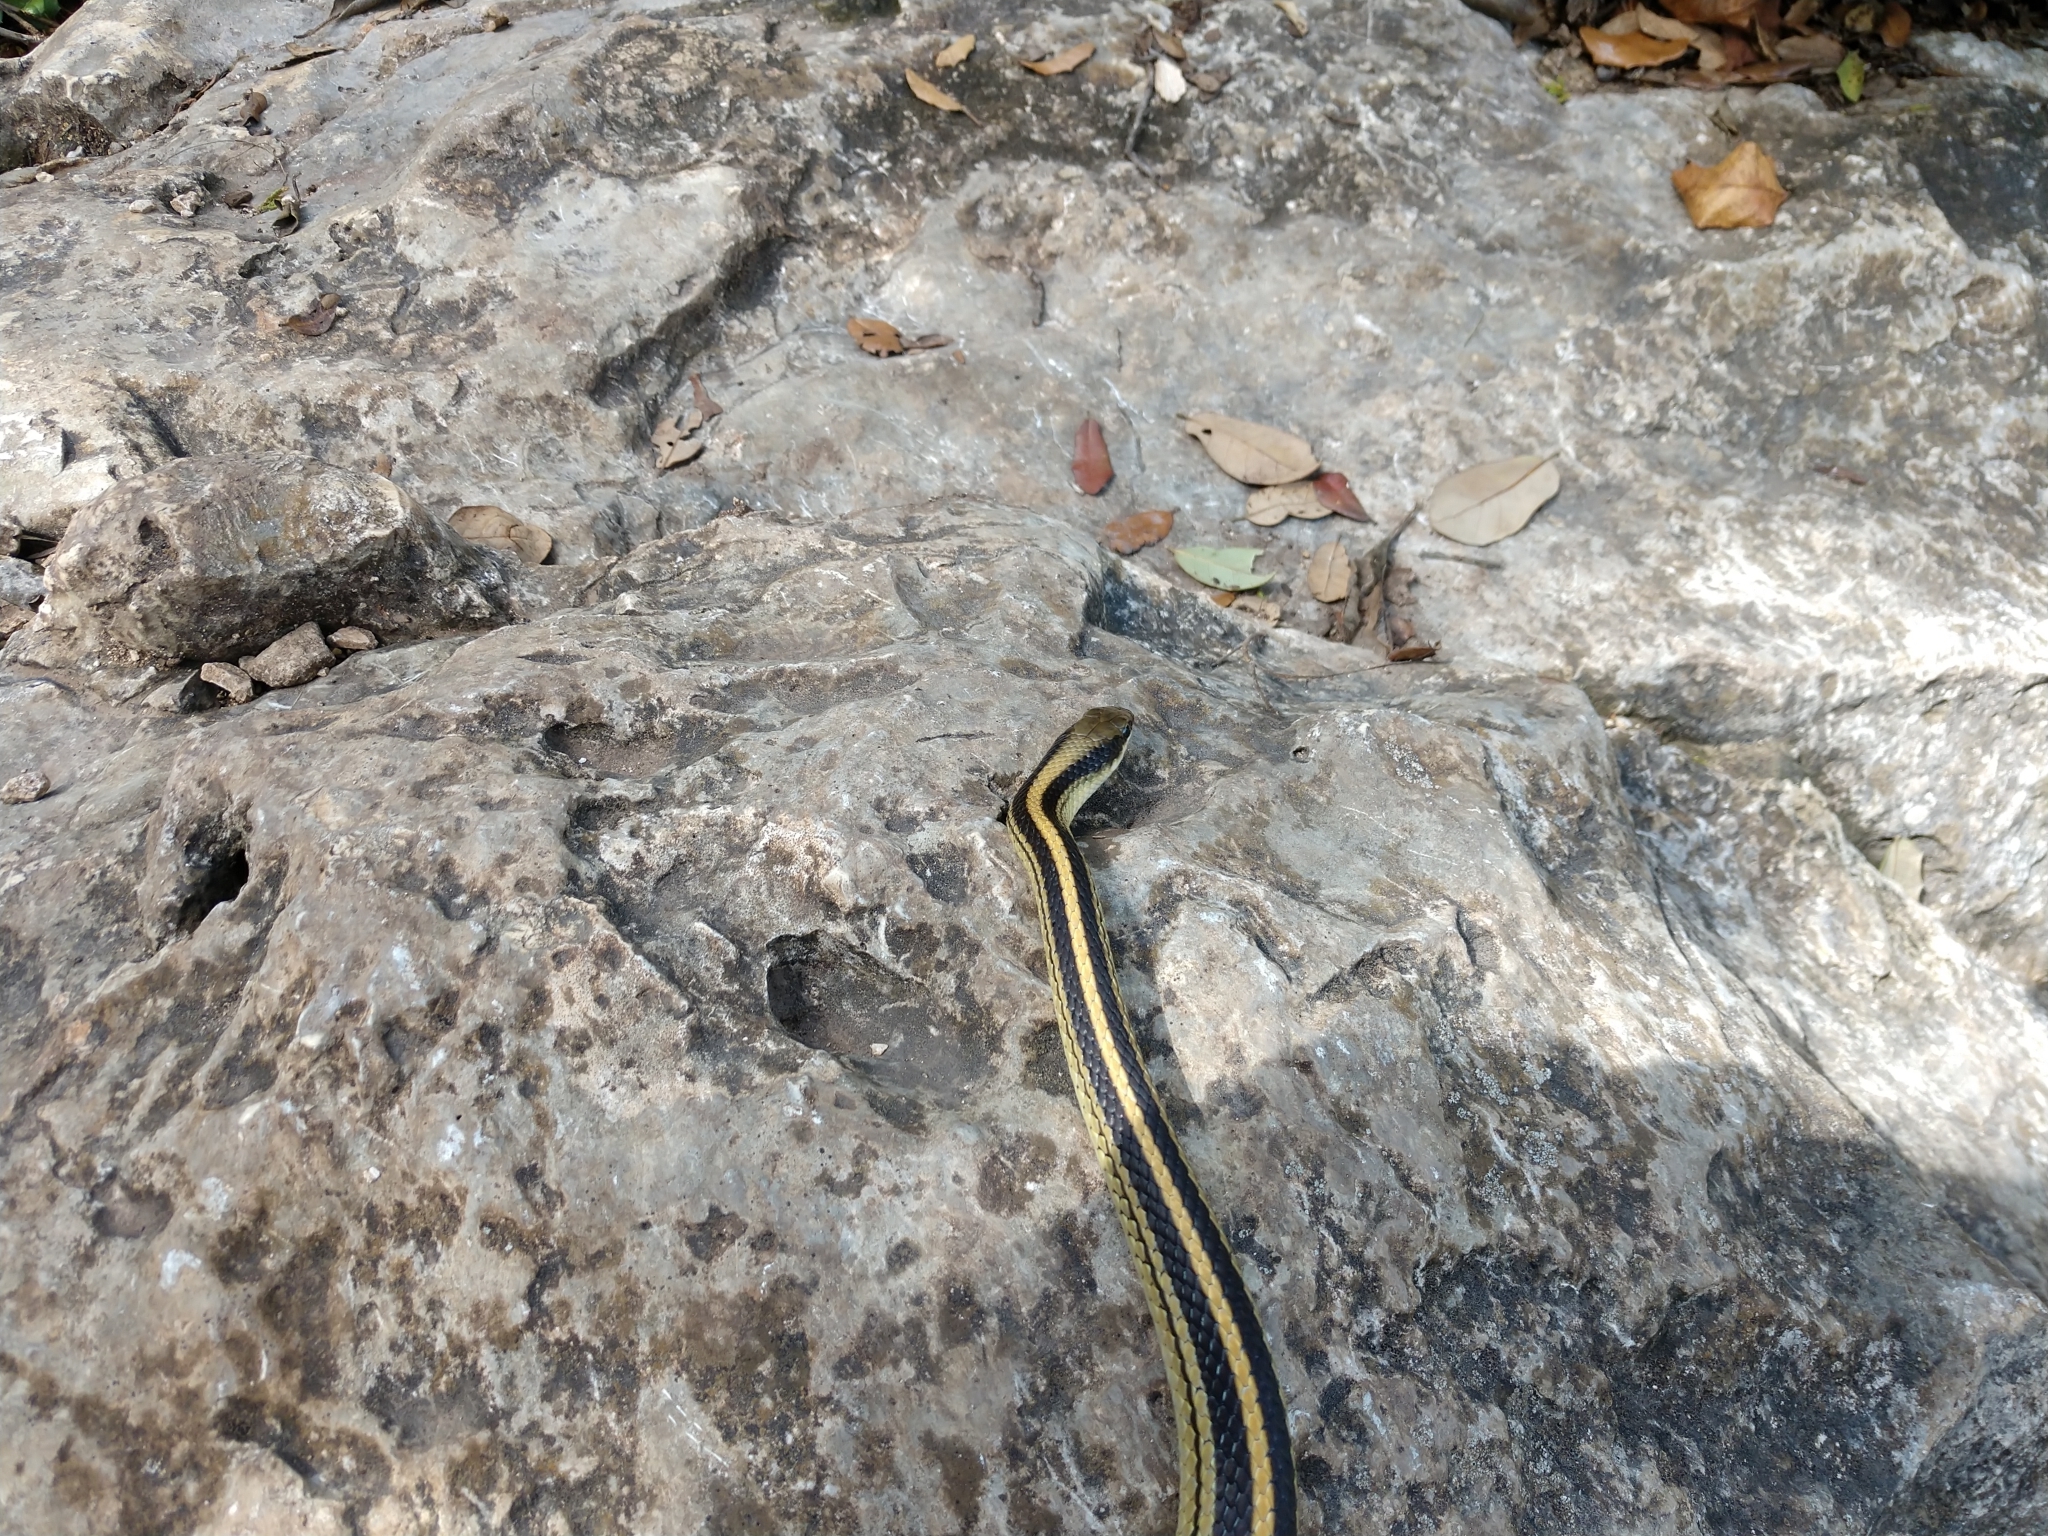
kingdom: Animalia
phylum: Chordata
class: Squamata
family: Colubridae
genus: Salvadora
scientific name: Salvadora lineata
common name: Texas patchnose snake
